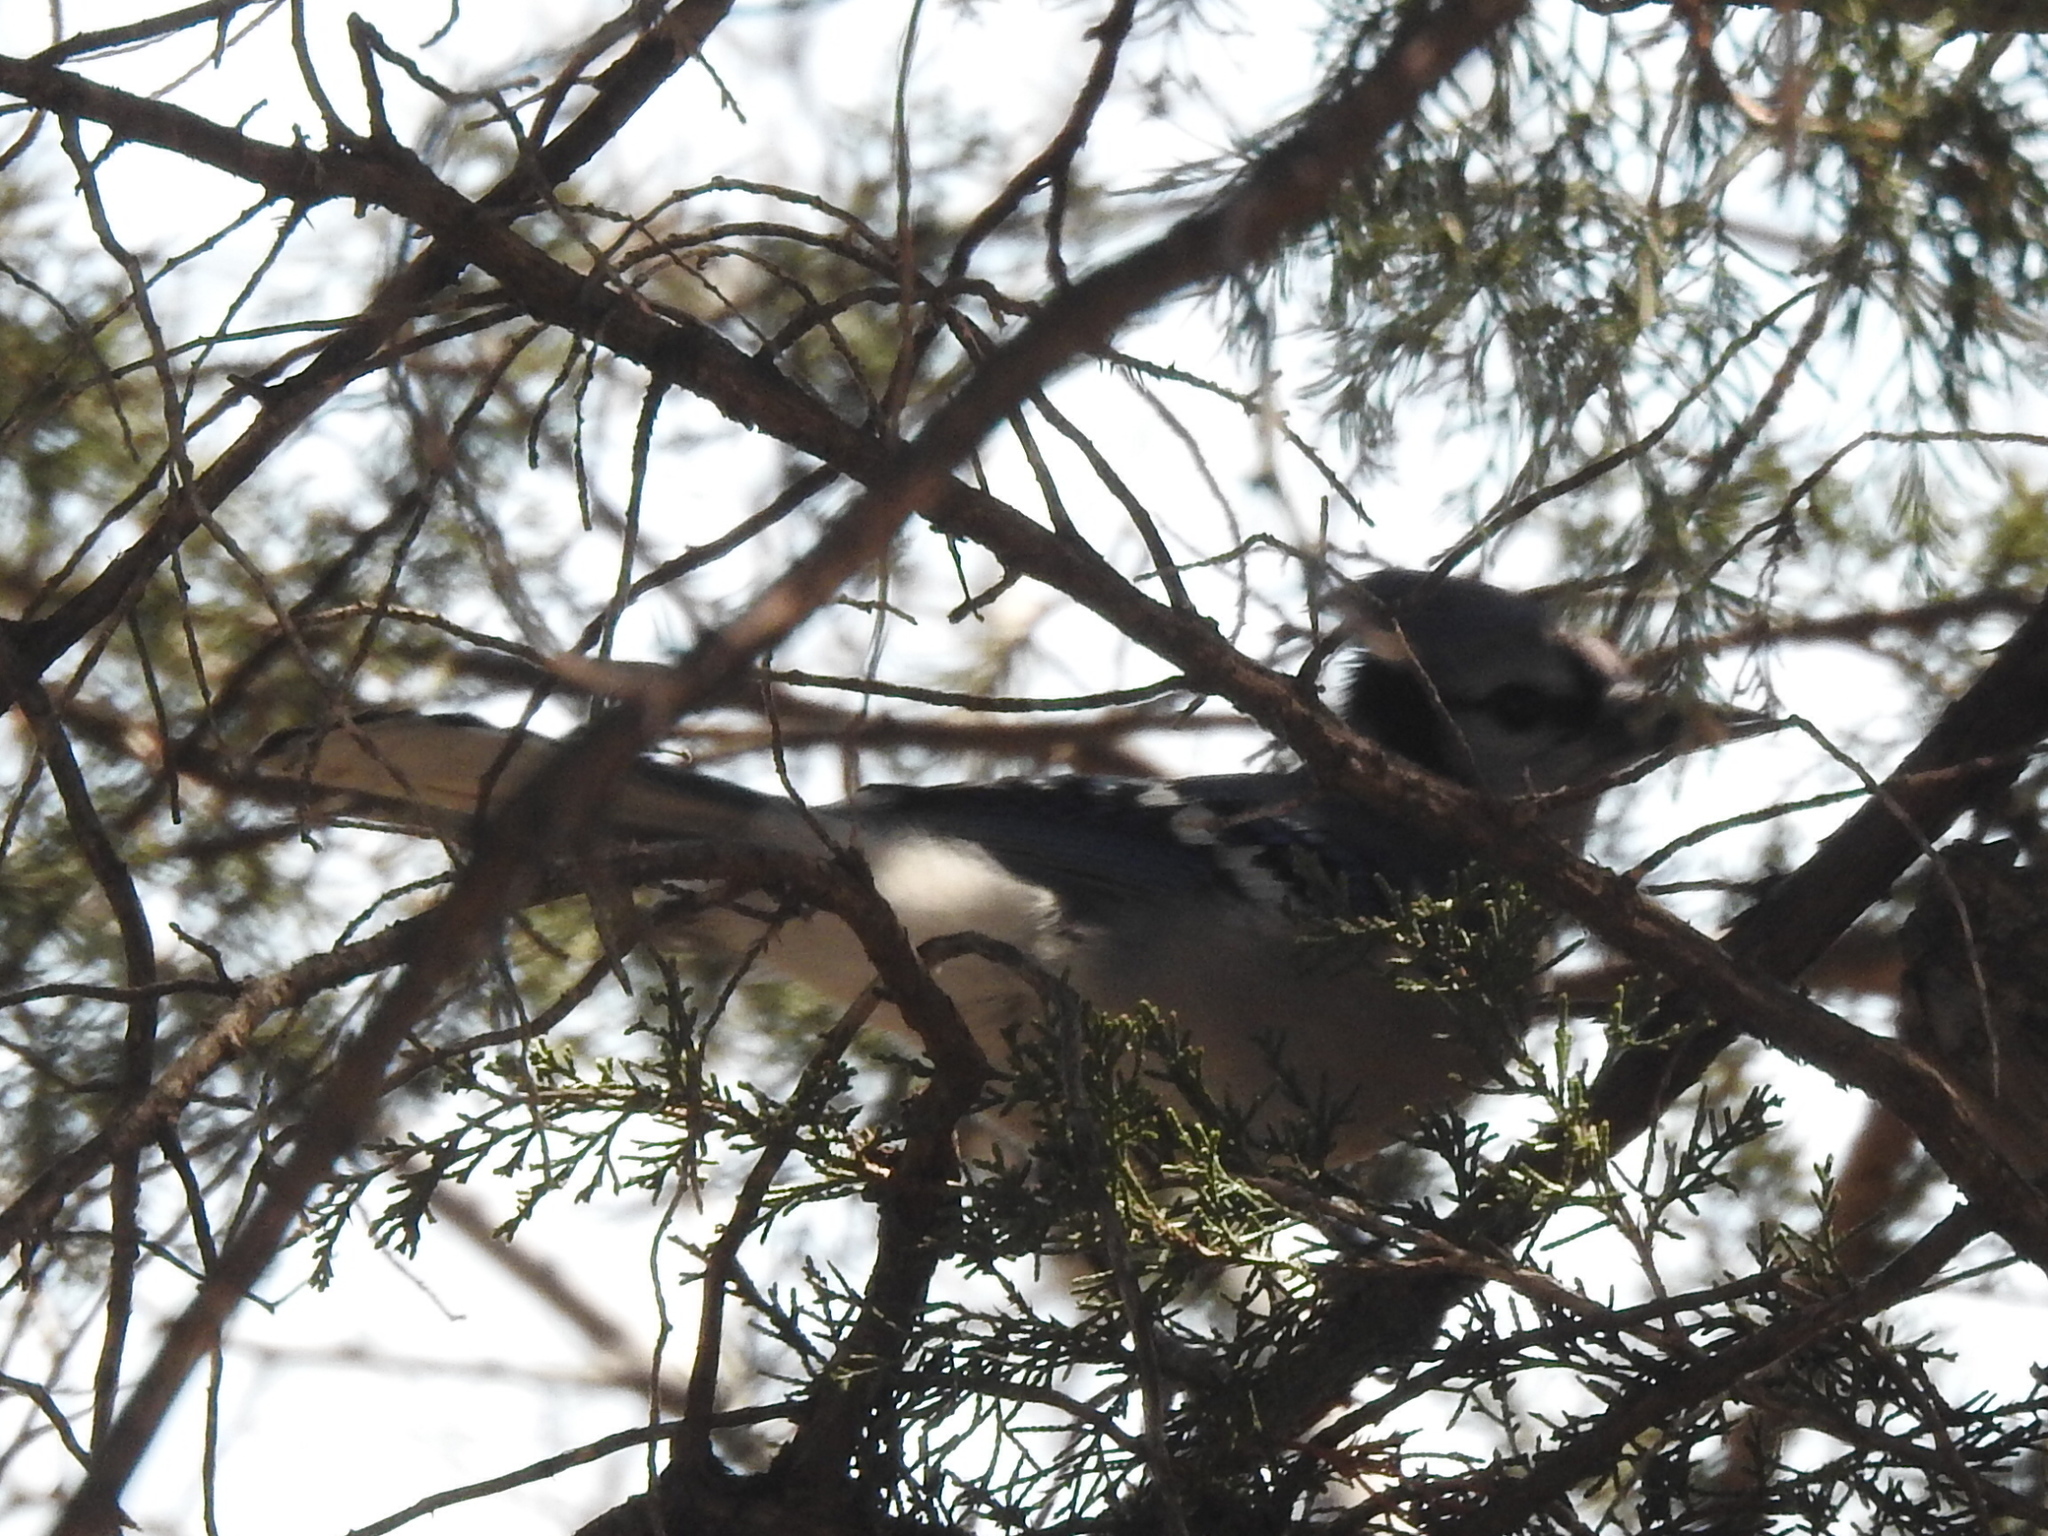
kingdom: Animalia
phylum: Chordata
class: Aves
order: Passeriformes
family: Corvidae
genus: Cyanocitta
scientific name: Cyanocitta cristata
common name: Blue jay
